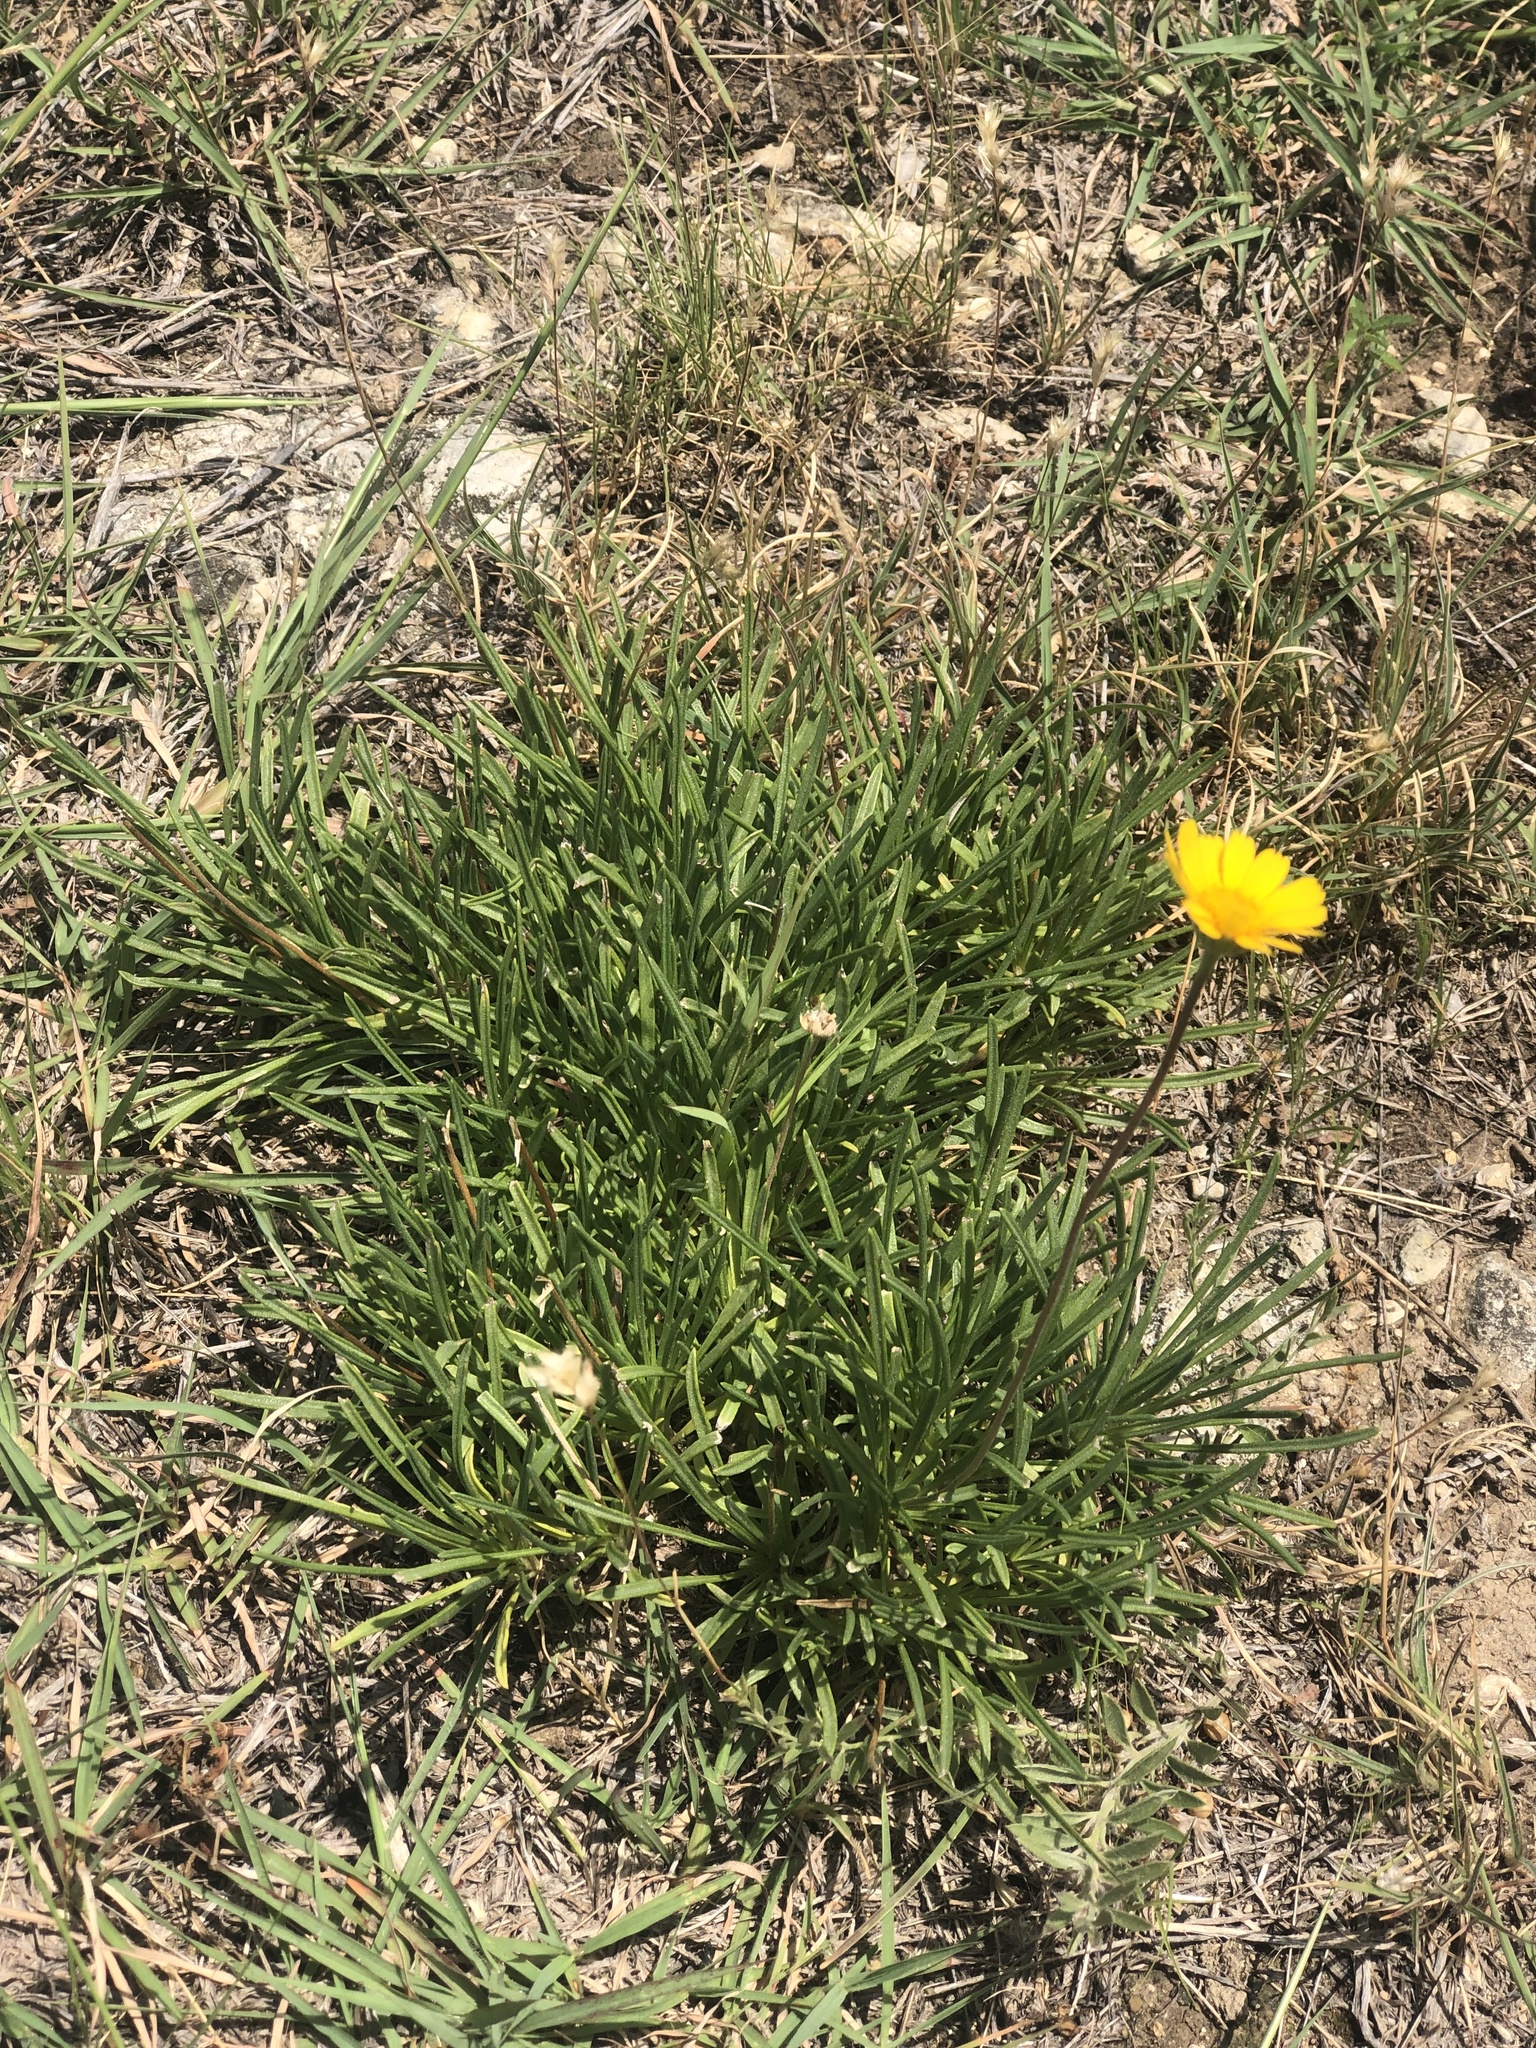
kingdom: Plantae
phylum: Tracheophyta
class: Magnoliopsida
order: Asterales
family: Asteraceae
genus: Tetraneuris
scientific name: Tetraneuris scaposa
